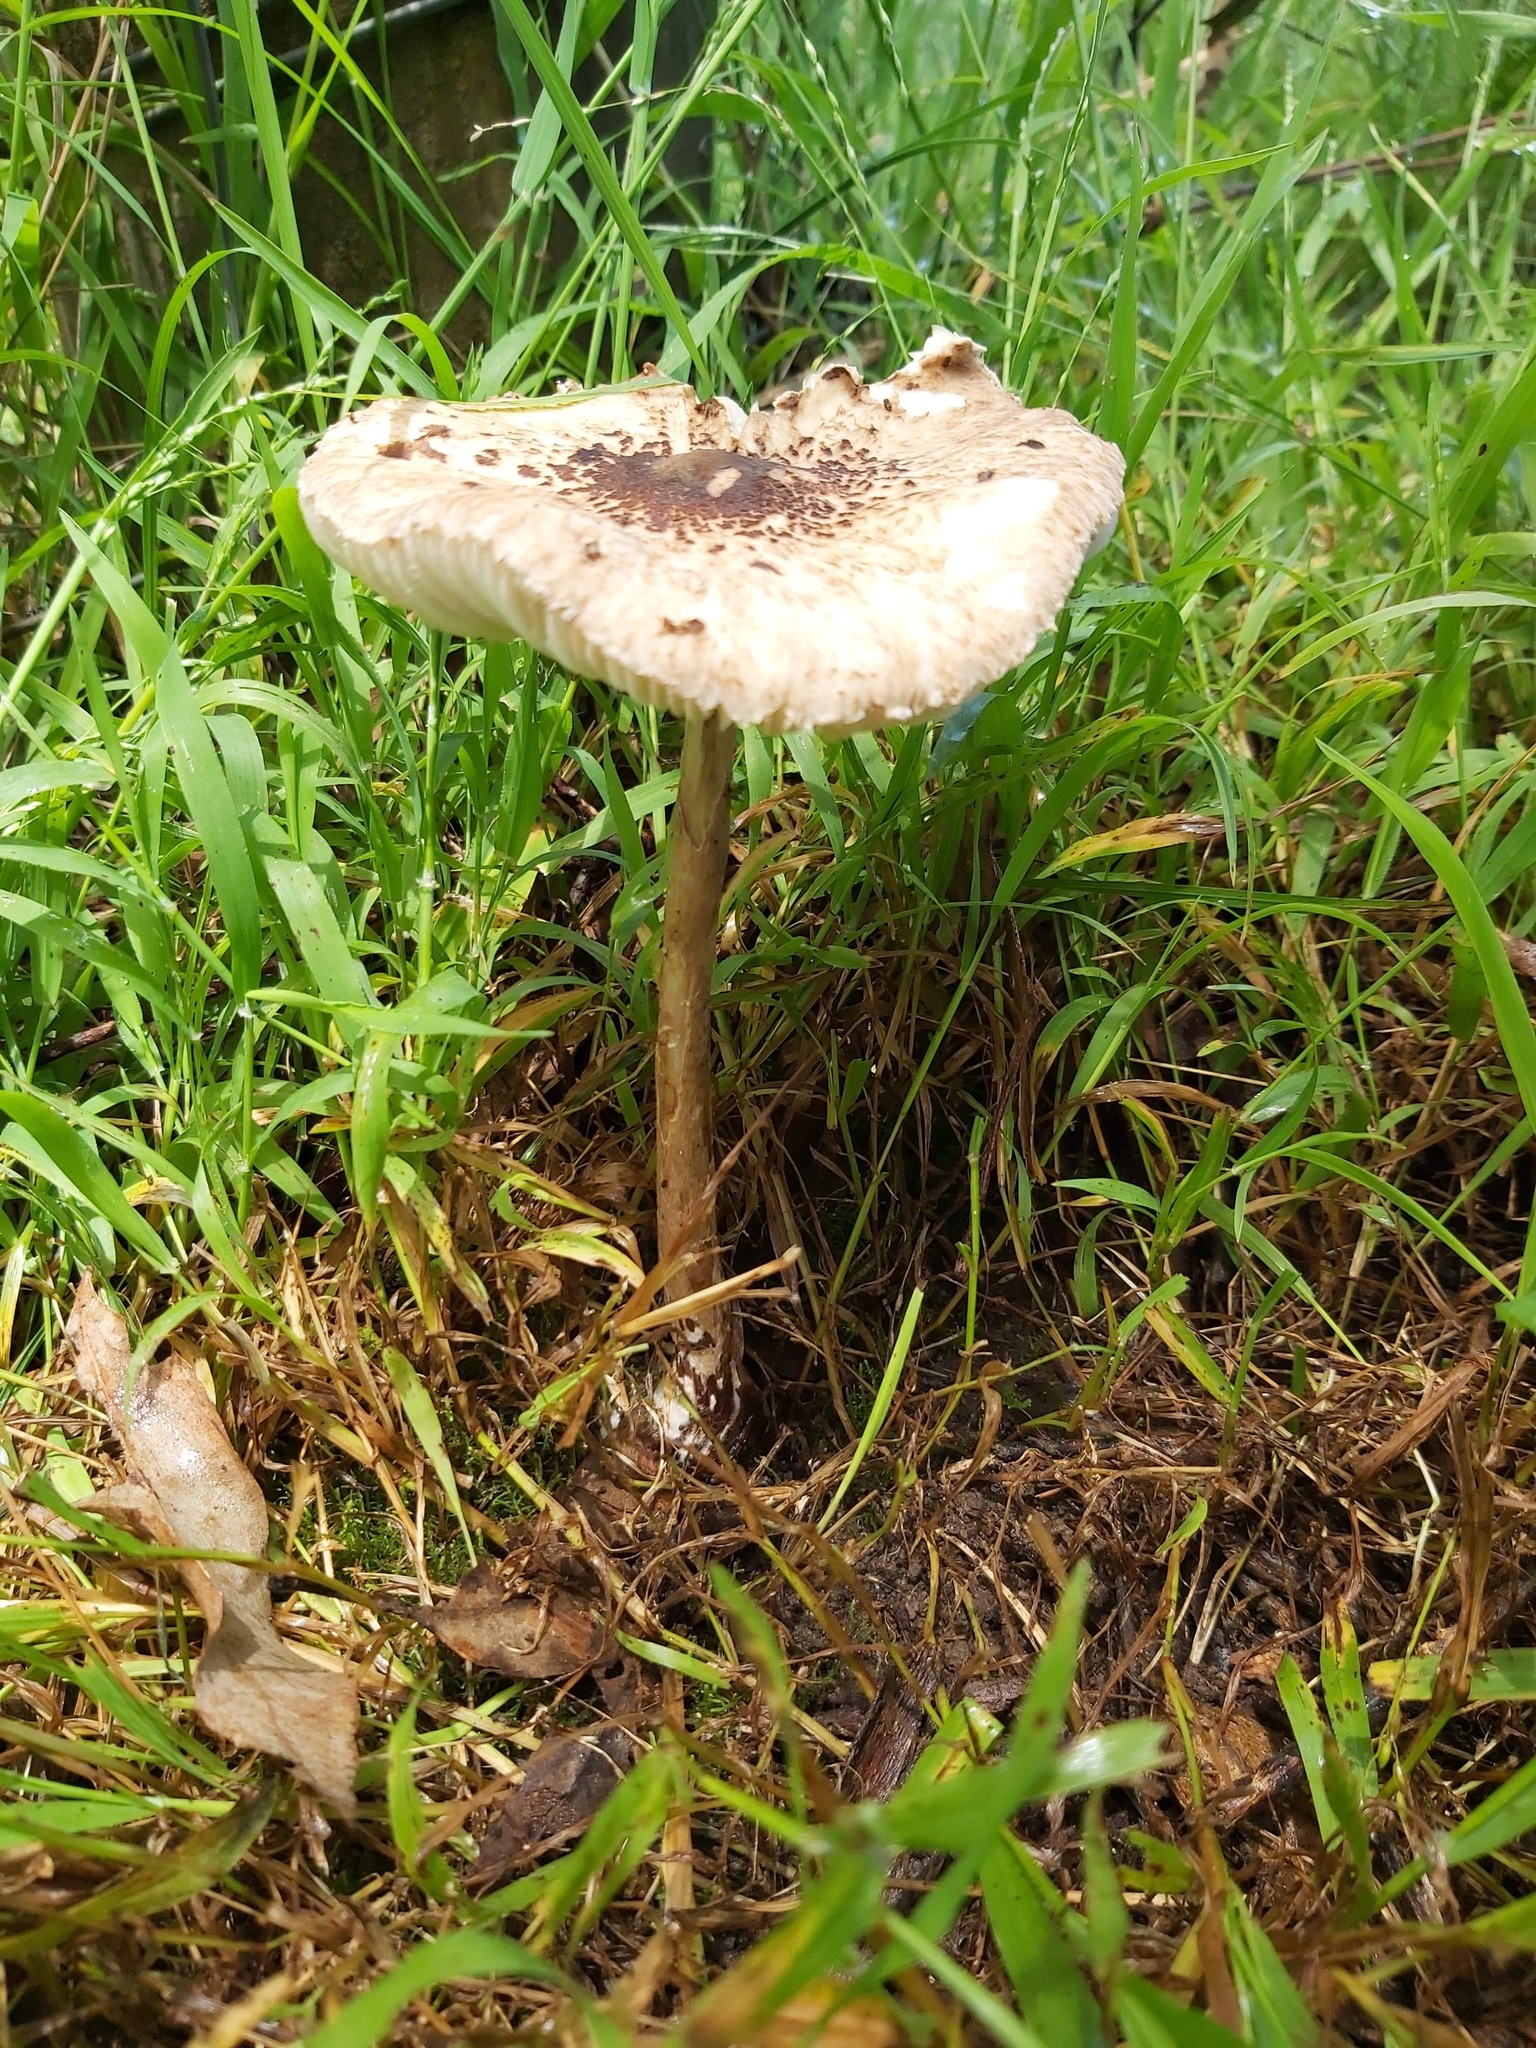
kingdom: Fungi
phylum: Basidiomycota
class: Agaricomycetes
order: Agaricales
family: Agaricaceae
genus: Macrolepiota
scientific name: Macrolepiota clelandii
